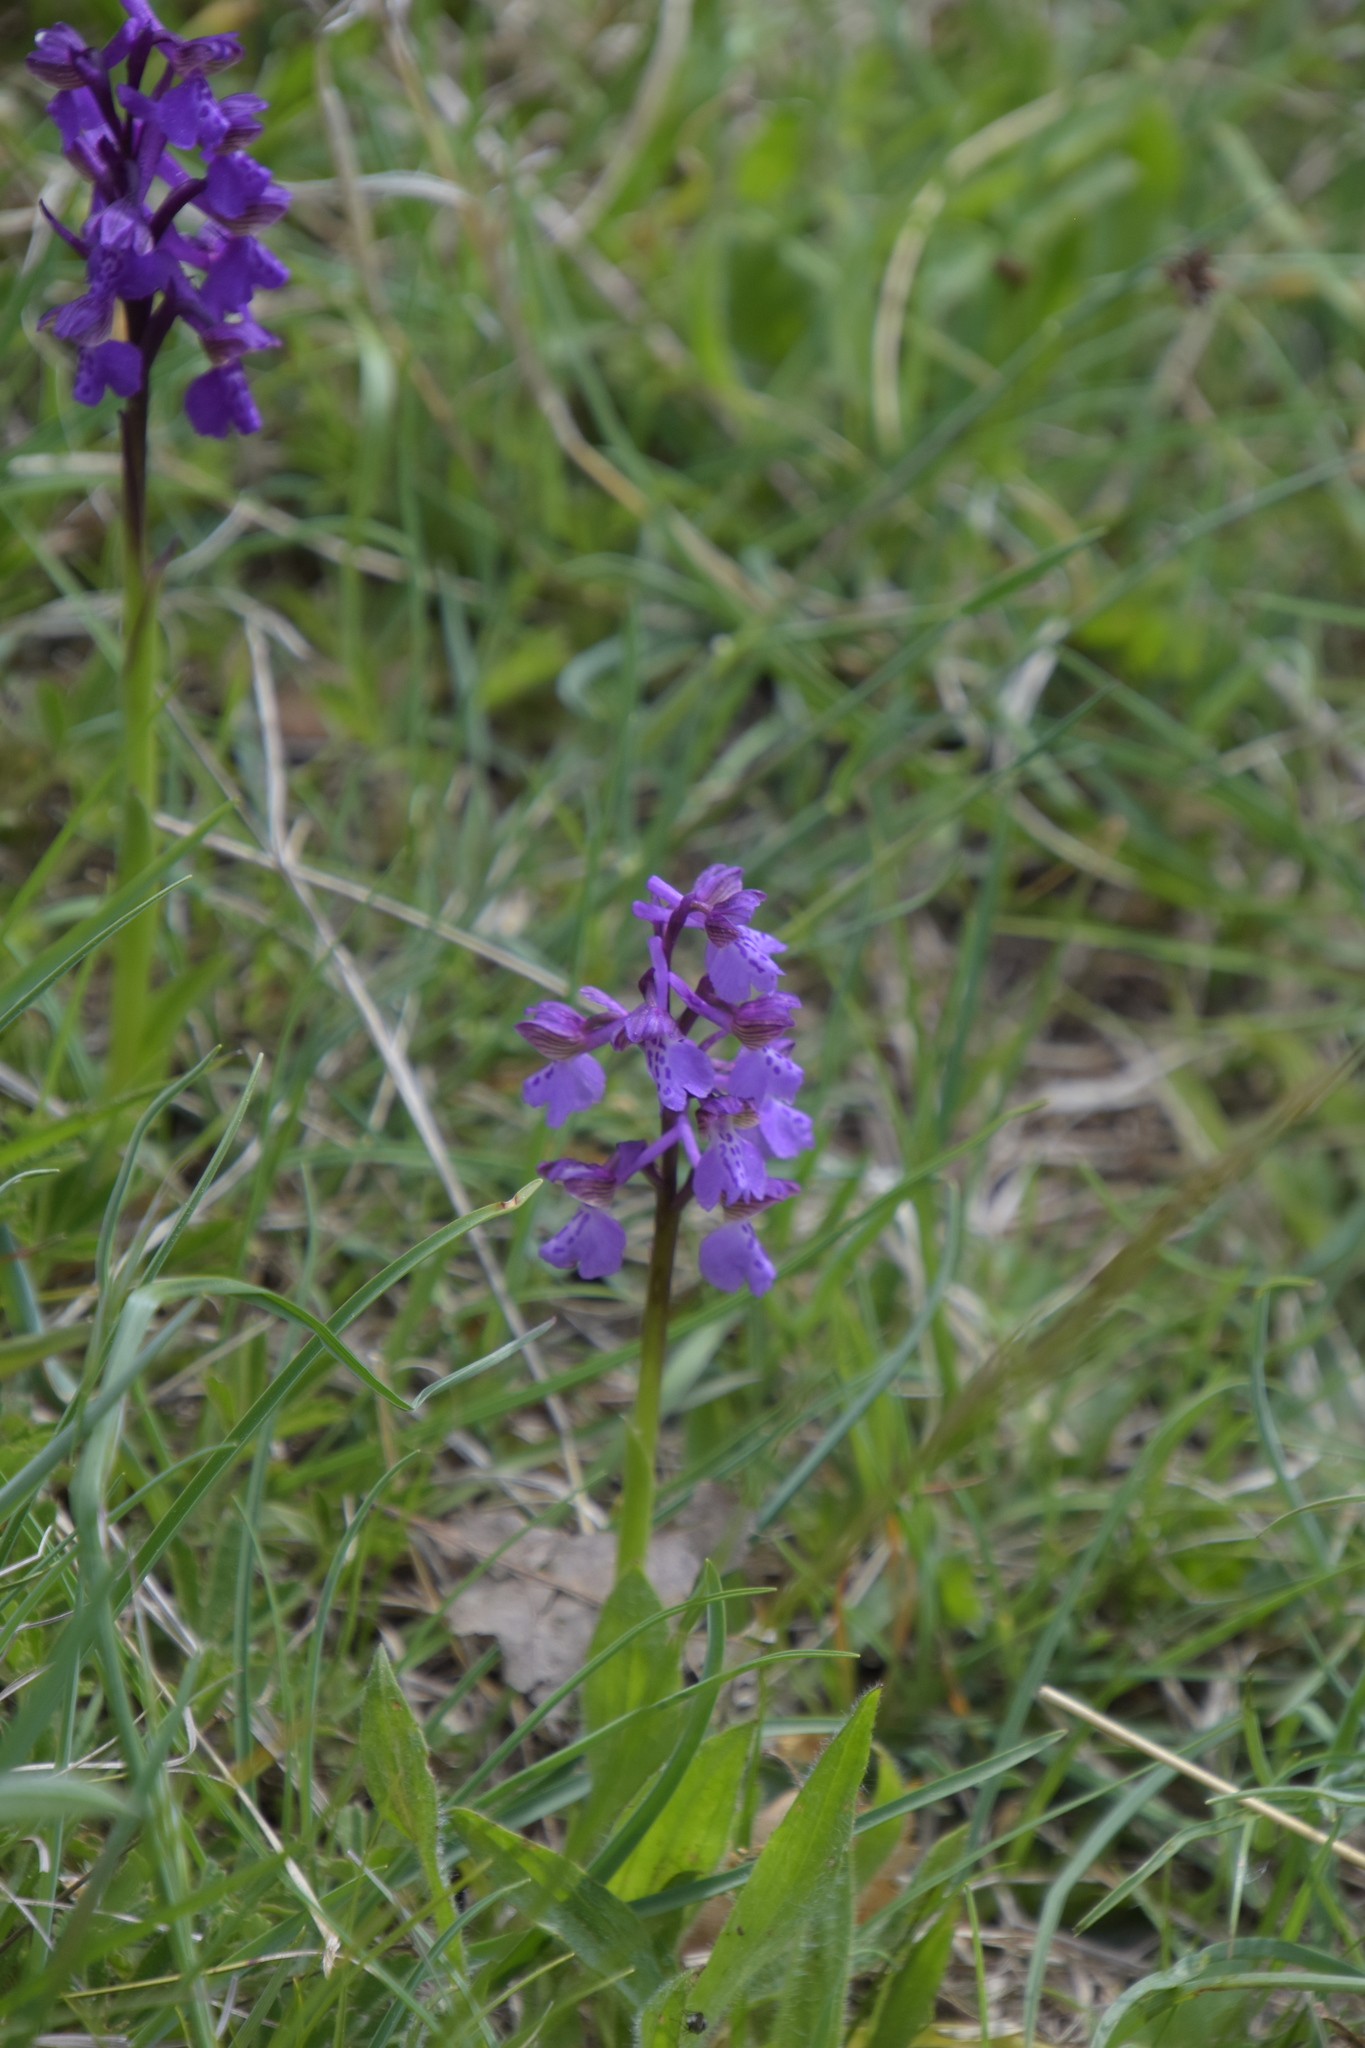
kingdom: Plantae
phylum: Tracheophyta
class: Liliopsida
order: Asparagales
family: Orchidaceae
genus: Anacamptis
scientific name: Anacamptis morio
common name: Green-winged orchid
